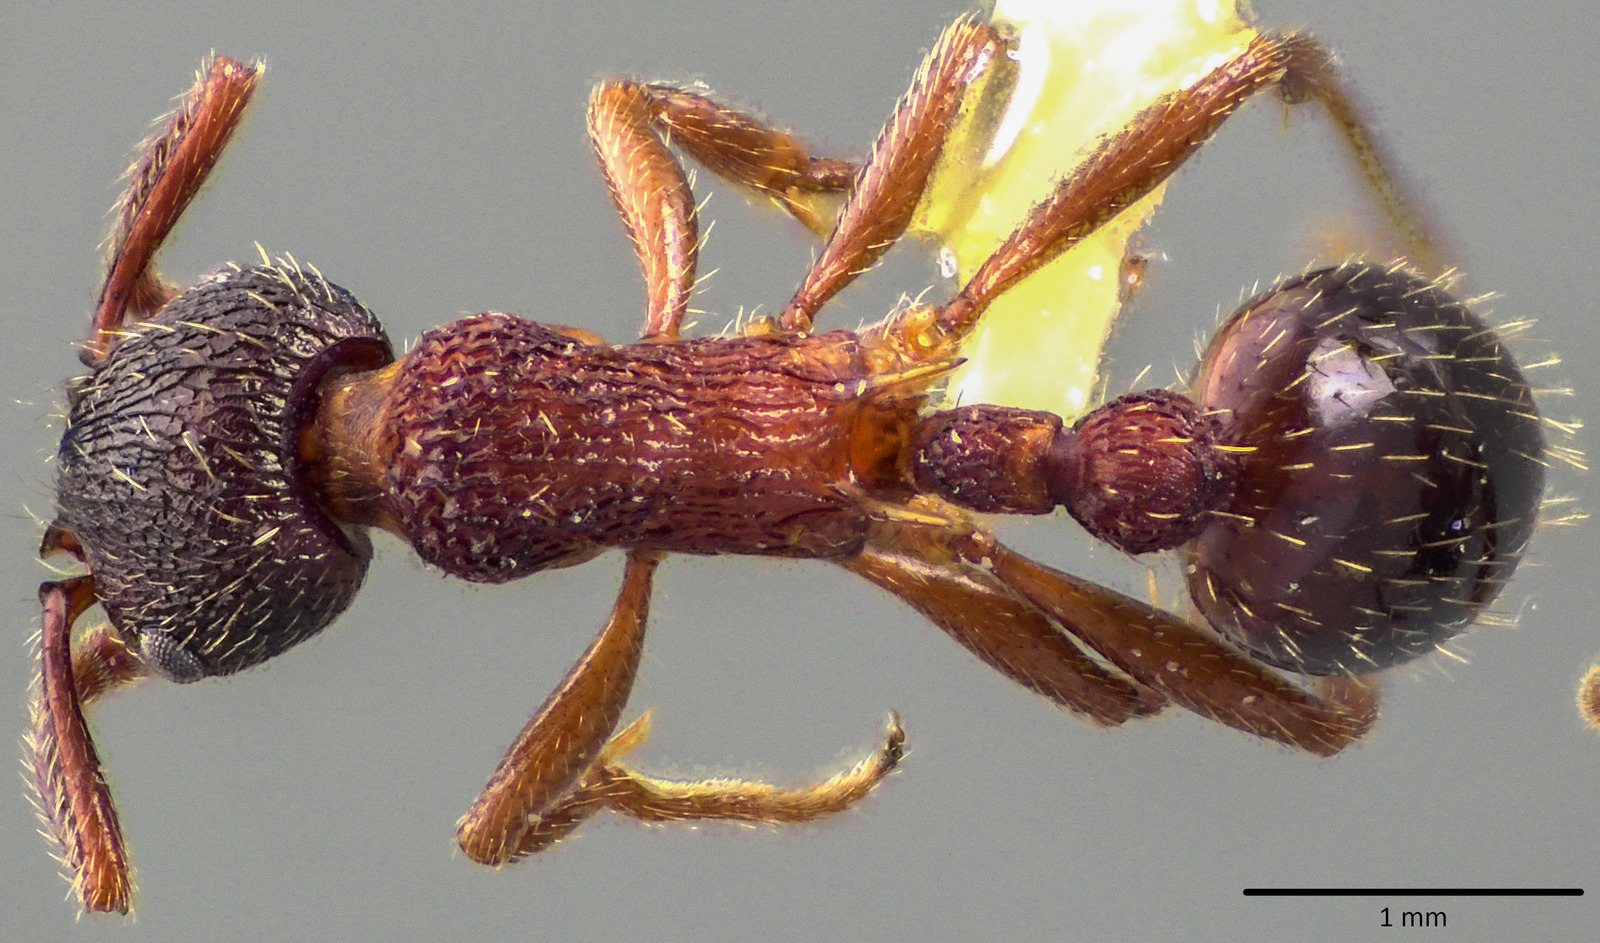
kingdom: Animalia
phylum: Arthropoda
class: Insecta
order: Hymenoptera
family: Formicidae
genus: Myrmica
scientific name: Myrmica americana
